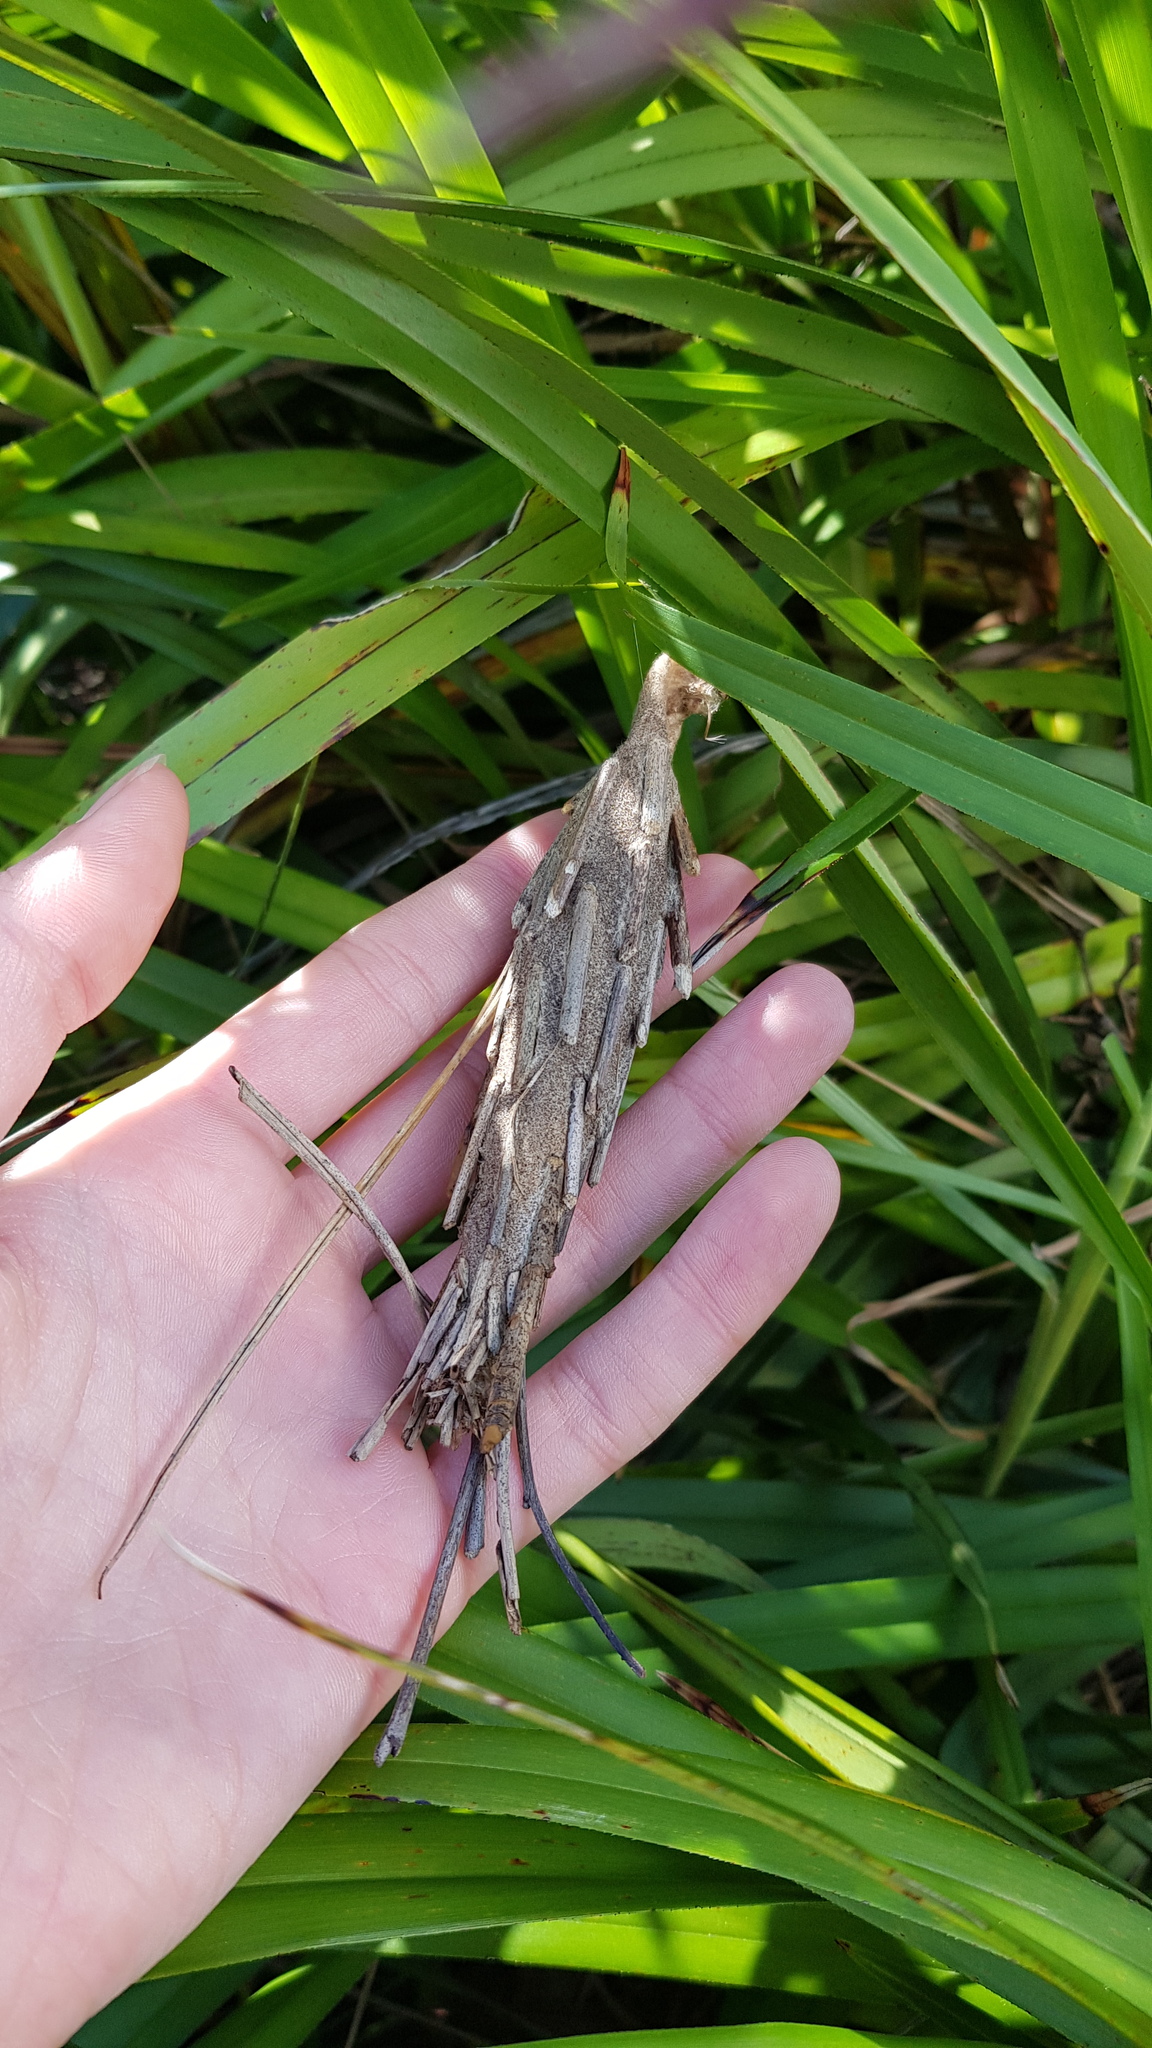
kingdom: Animalia
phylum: Arthropoda
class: Insecta
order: Lepidoptera
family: Psychidae
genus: Metura
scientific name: Metura elongatus
